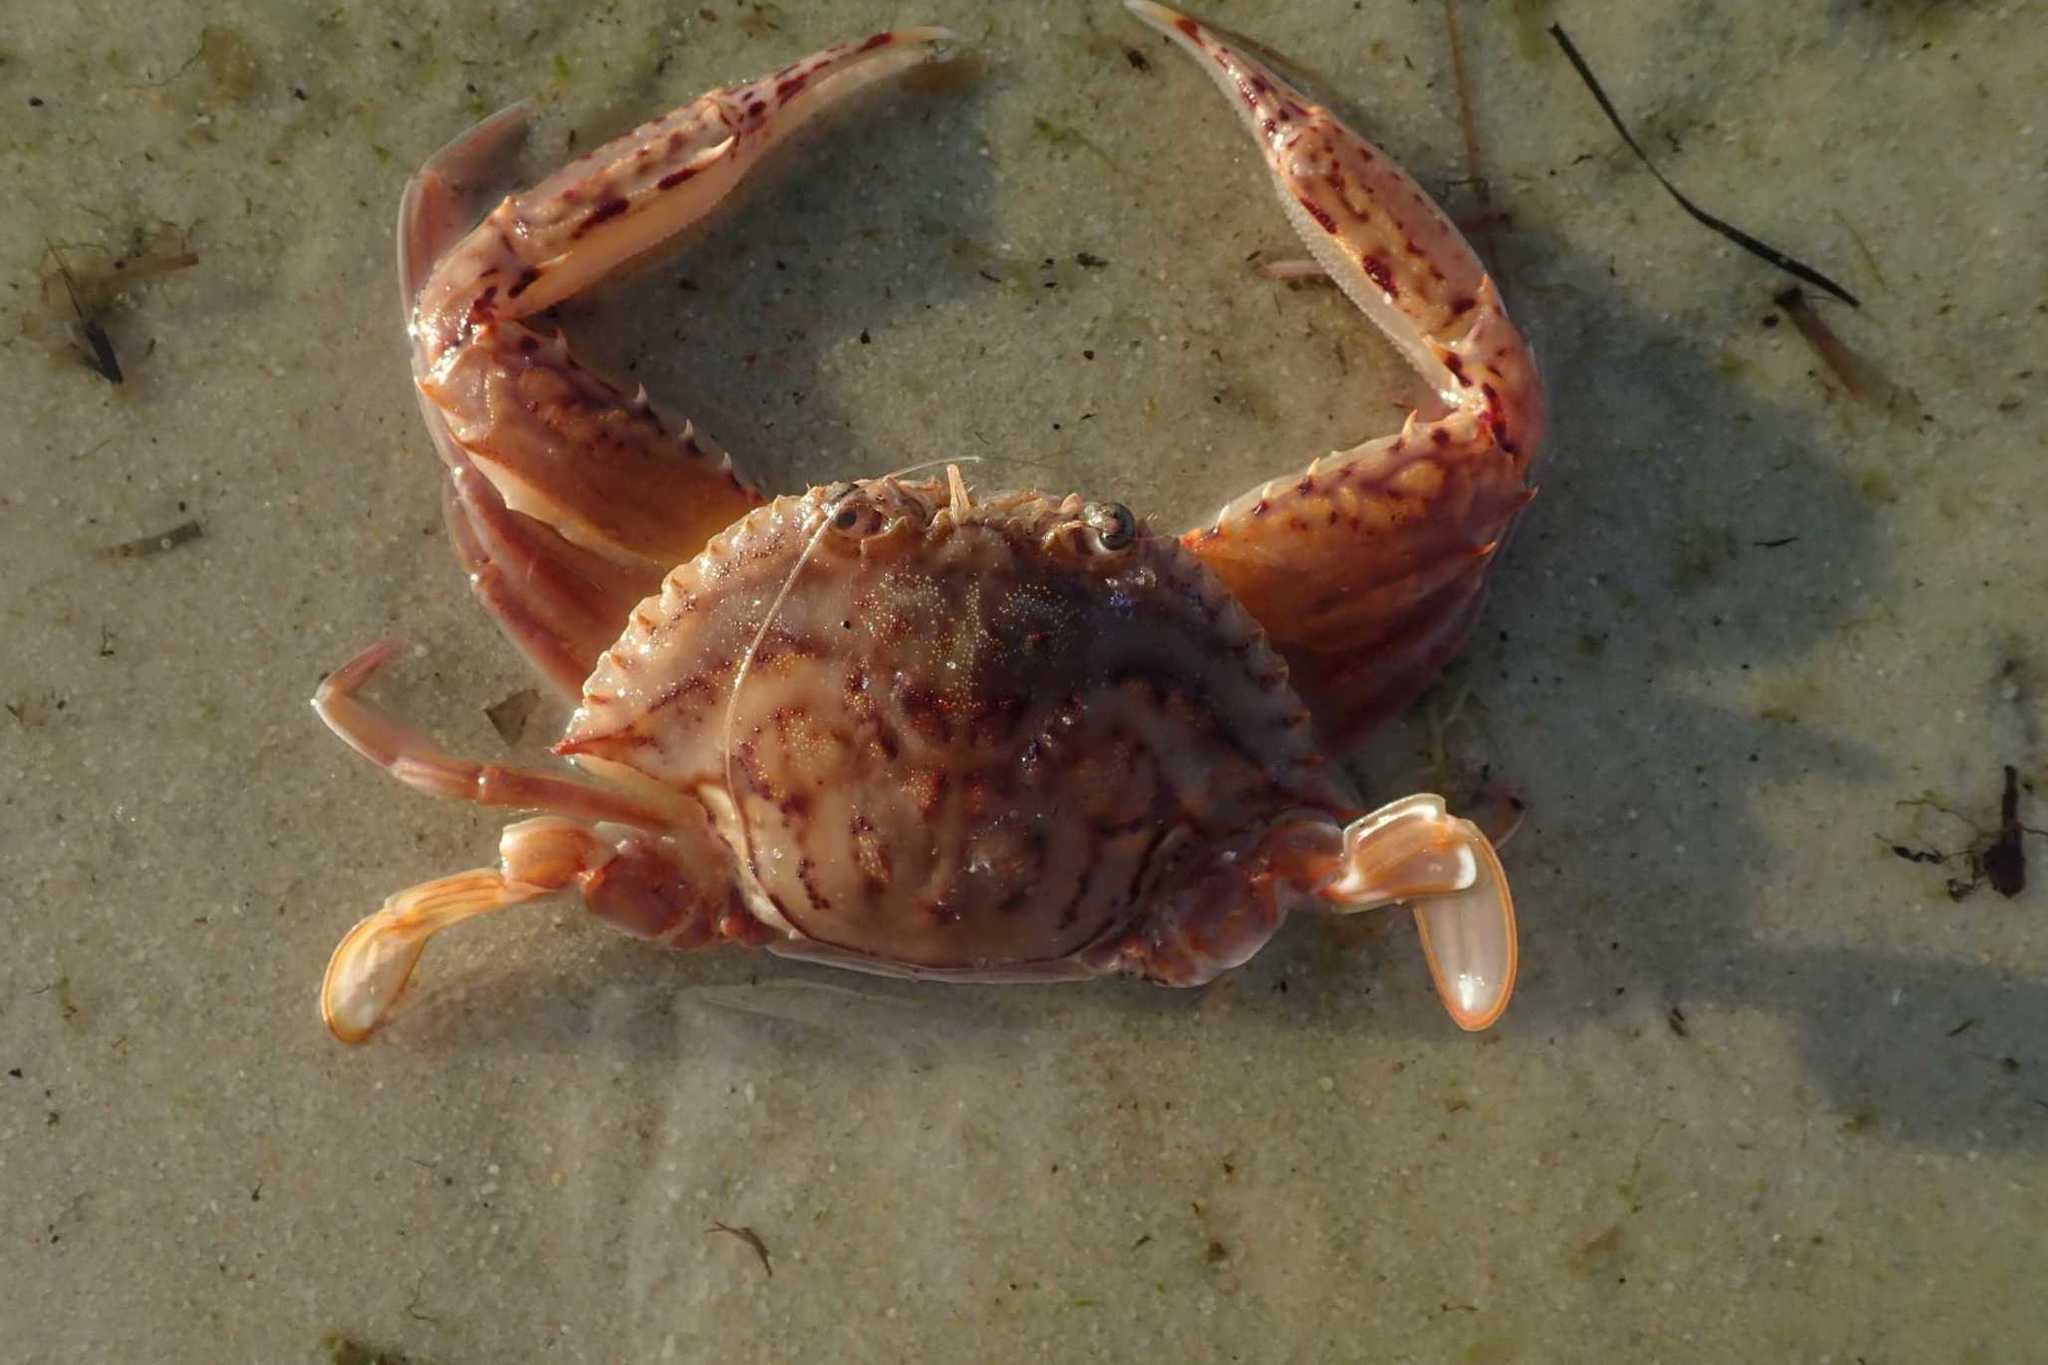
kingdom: Animalia
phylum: Arthropoda
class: Malacostraca
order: Decapoda
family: Portunidae
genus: Monomia
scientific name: Monomia gladiator
